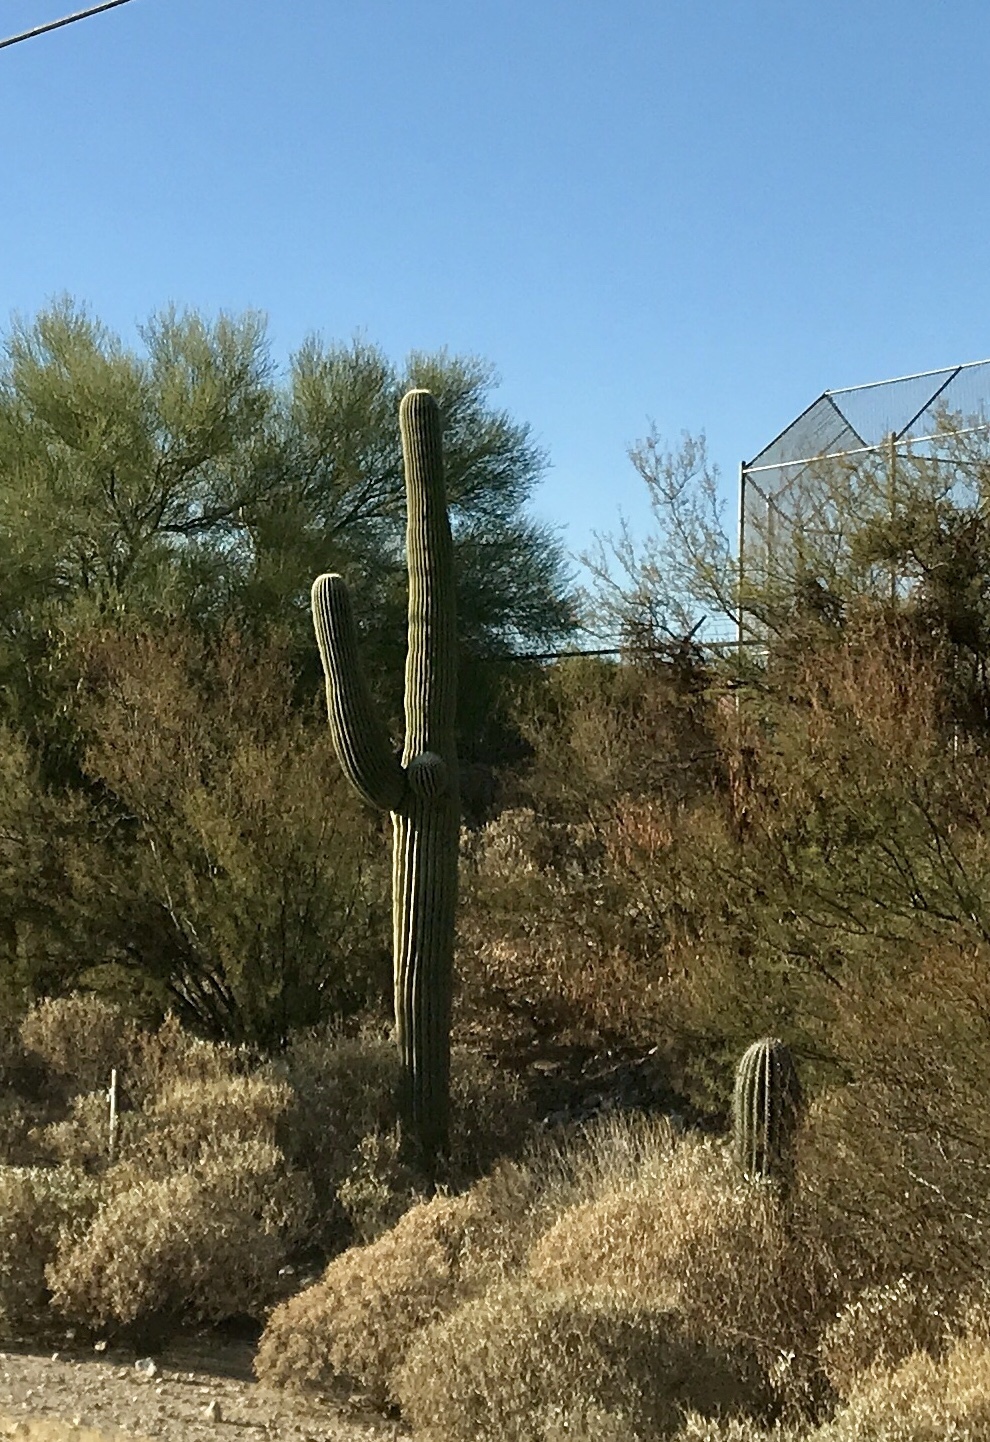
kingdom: Plantae
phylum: Tracheophyta
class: Magnoliopsida
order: Caryophyllales
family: Cactaceae
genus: Carnegiea
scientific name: Carnegiea gigantea
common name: Saguaro
